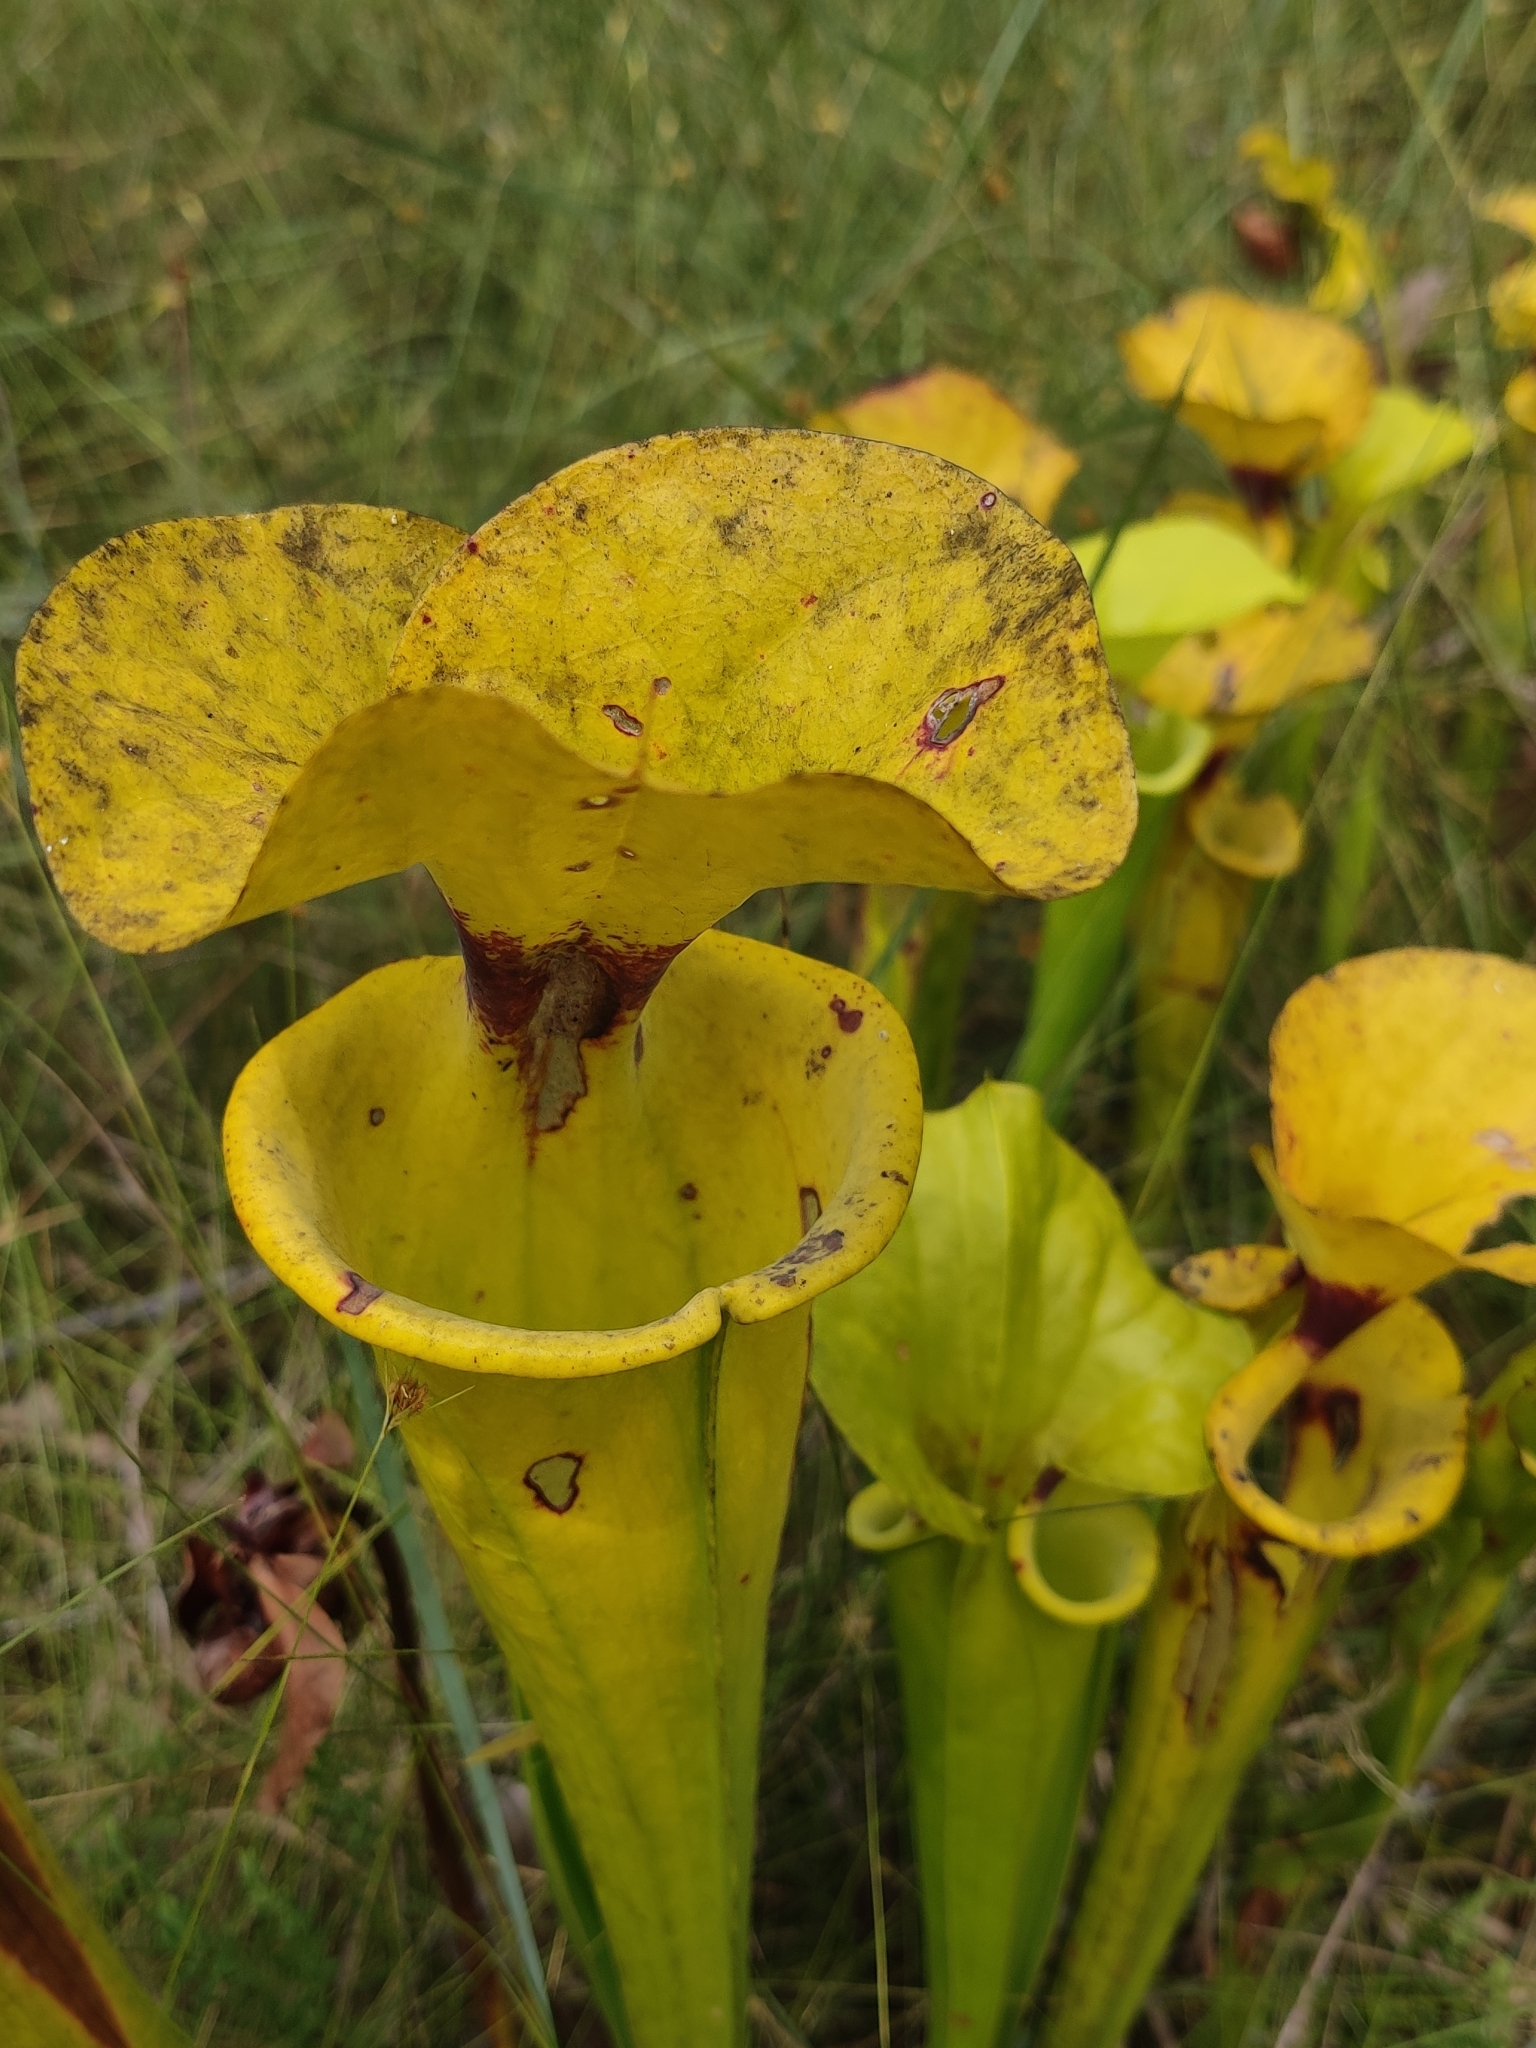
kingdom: Plantae
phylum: Tracheophyta
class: Magnoliopsida
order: Ericales
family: Sarraceniaceae
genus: Sarracenia
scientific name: Sarracenia flava
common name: Trumpets
